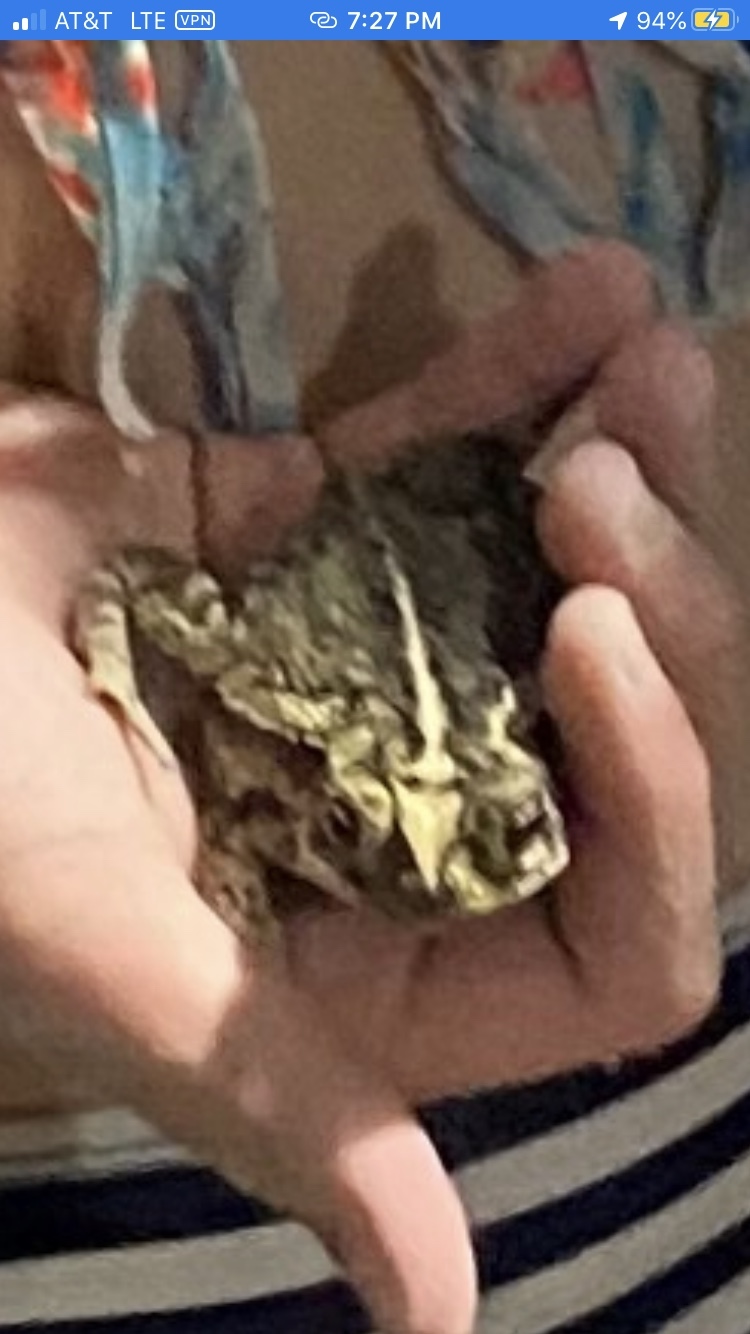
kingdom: Animalia
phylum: Chordata
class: Amphibia
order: Anura
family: Bufonidae
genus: Incilius
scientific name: Incilius nebulifer
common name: Gulf coast toad
